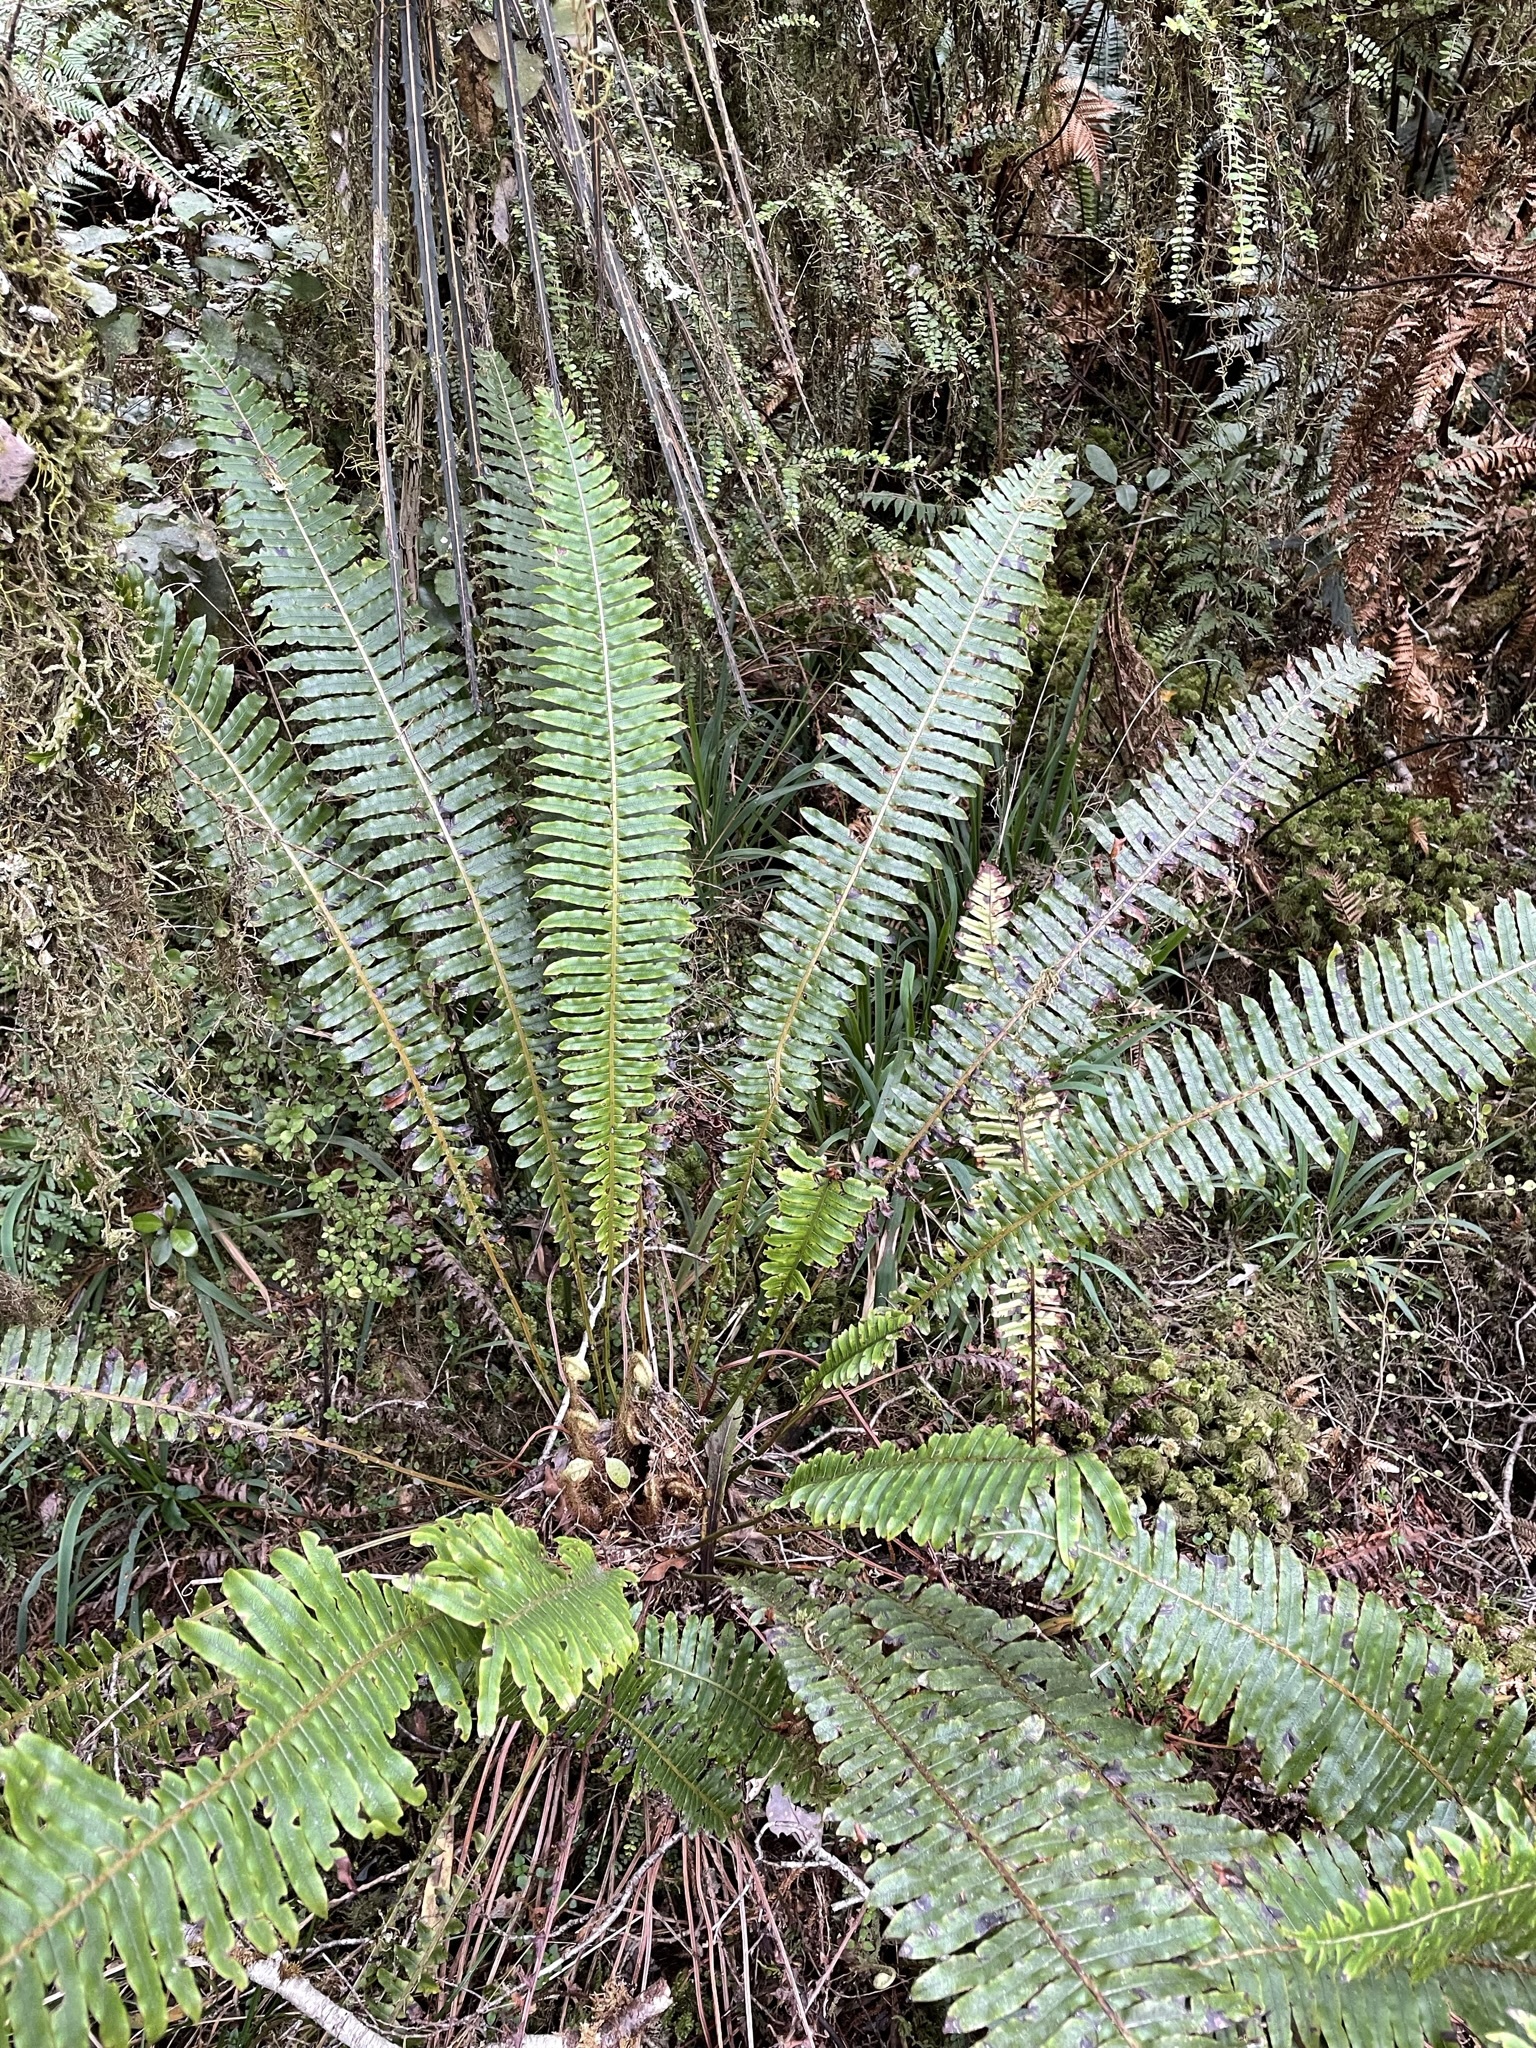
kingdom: Plantae
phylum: Tracheophyta
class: Polypodiopsida
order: Polypodiales
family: Blechnaceae
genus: Lomaria
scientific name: Lomaria discolor
